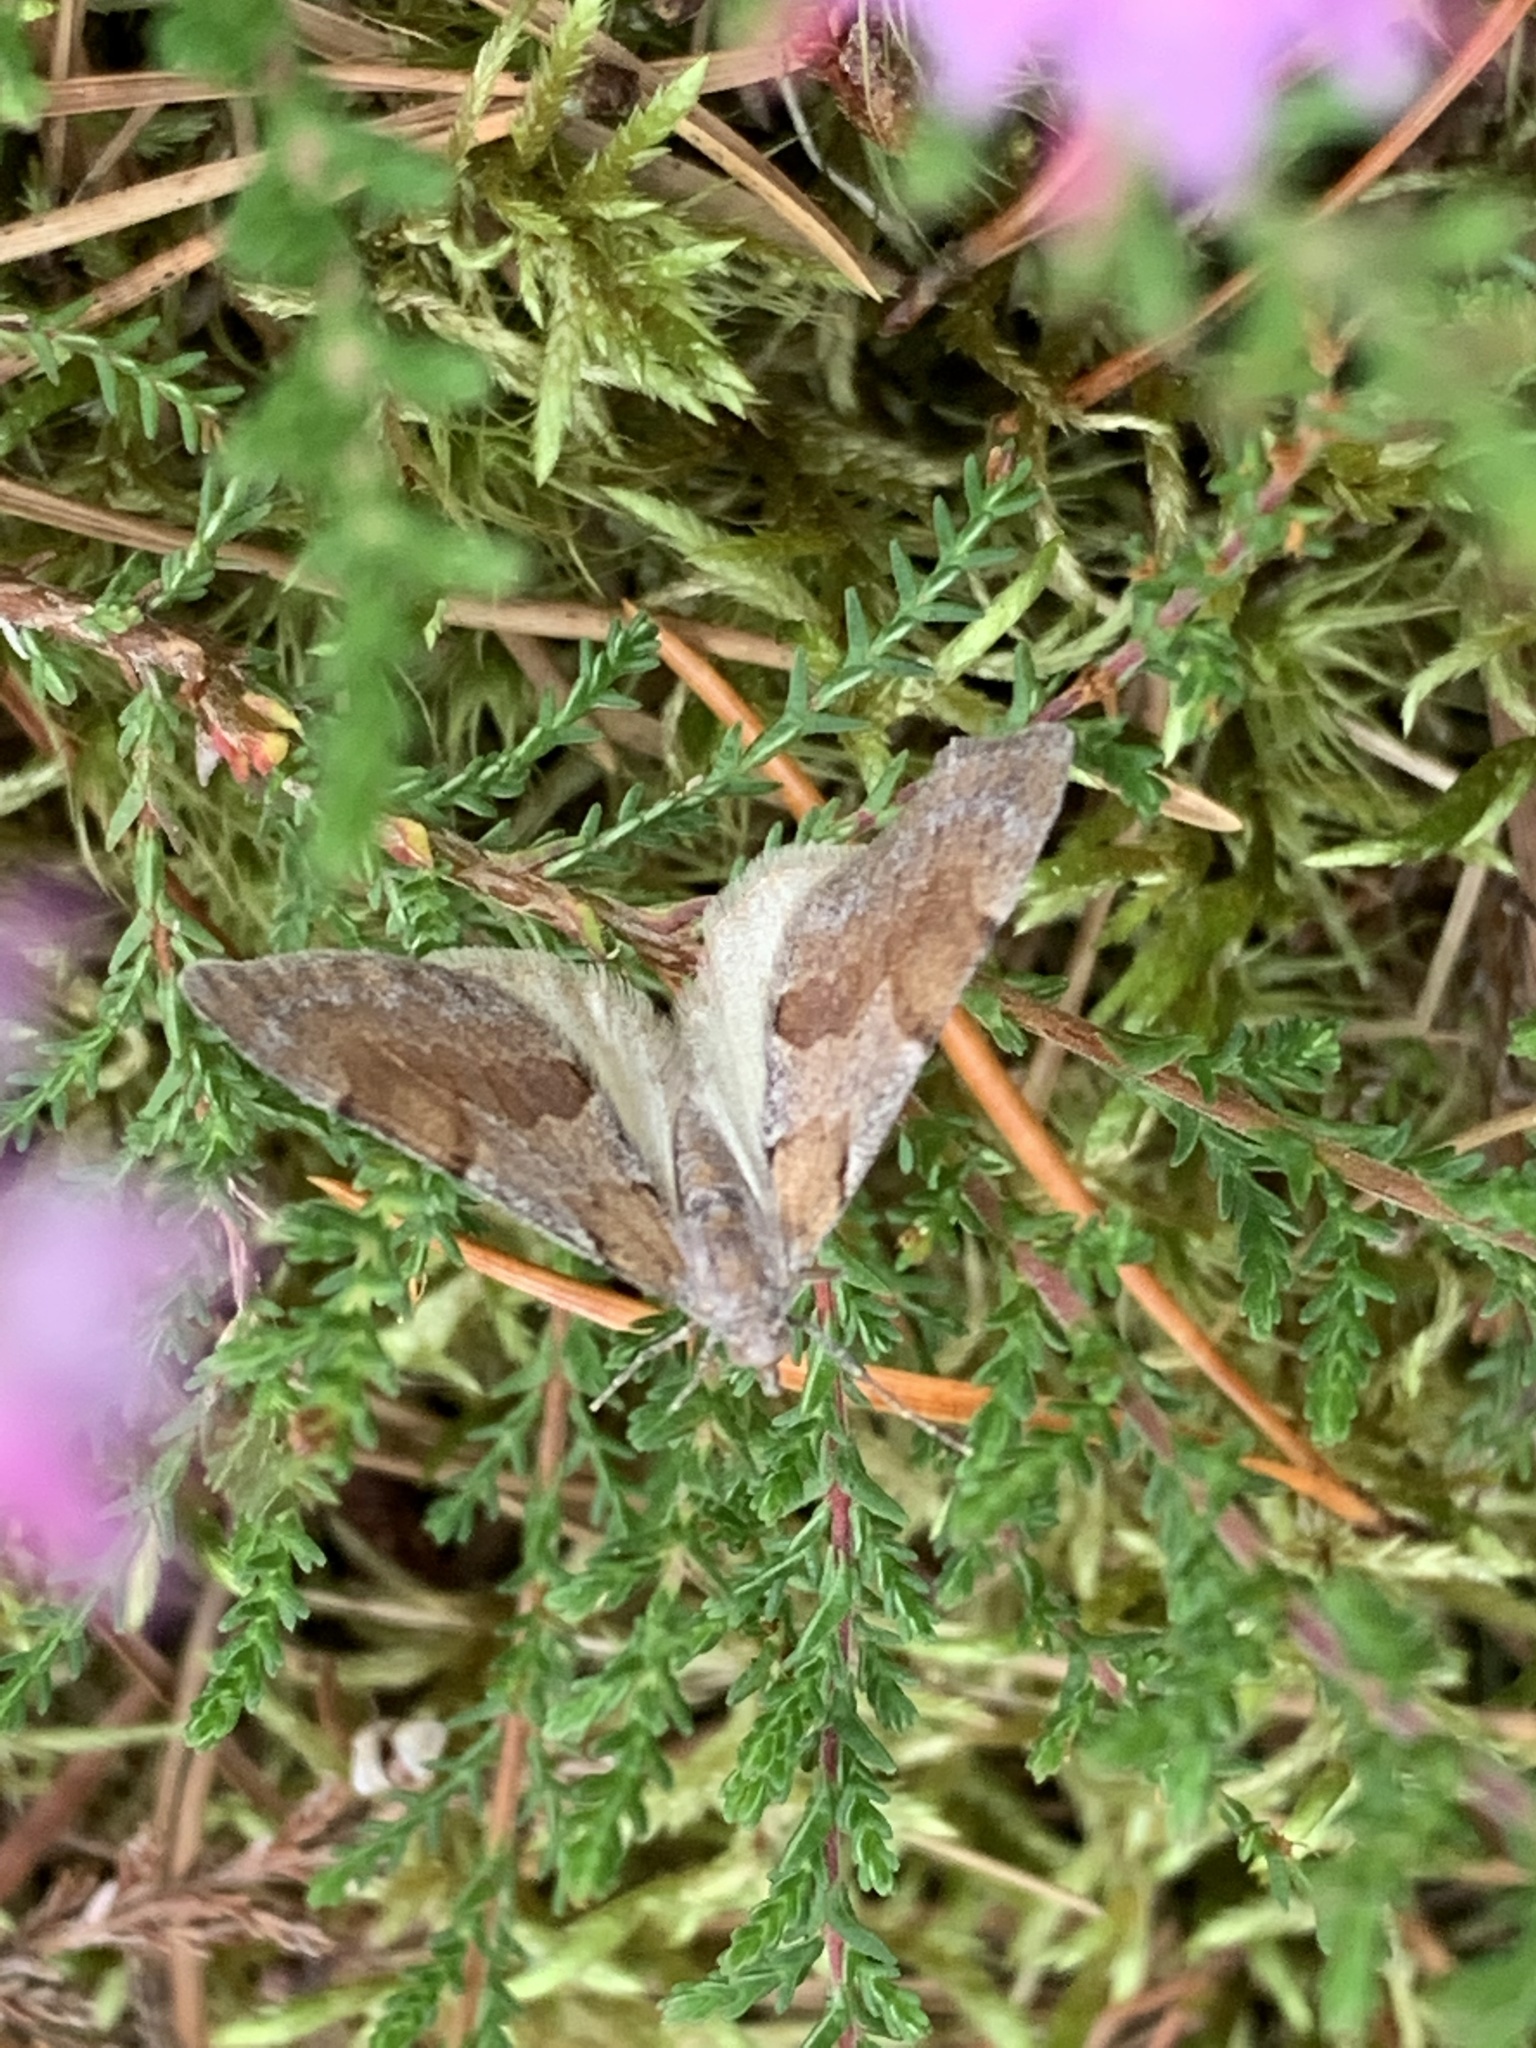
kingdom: Animalia
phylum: Arthropoda
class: Insecta
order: Lepidoptera
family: Geometridae
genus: Pennithera
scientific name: Pennithera firmata
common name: Pine carpet
